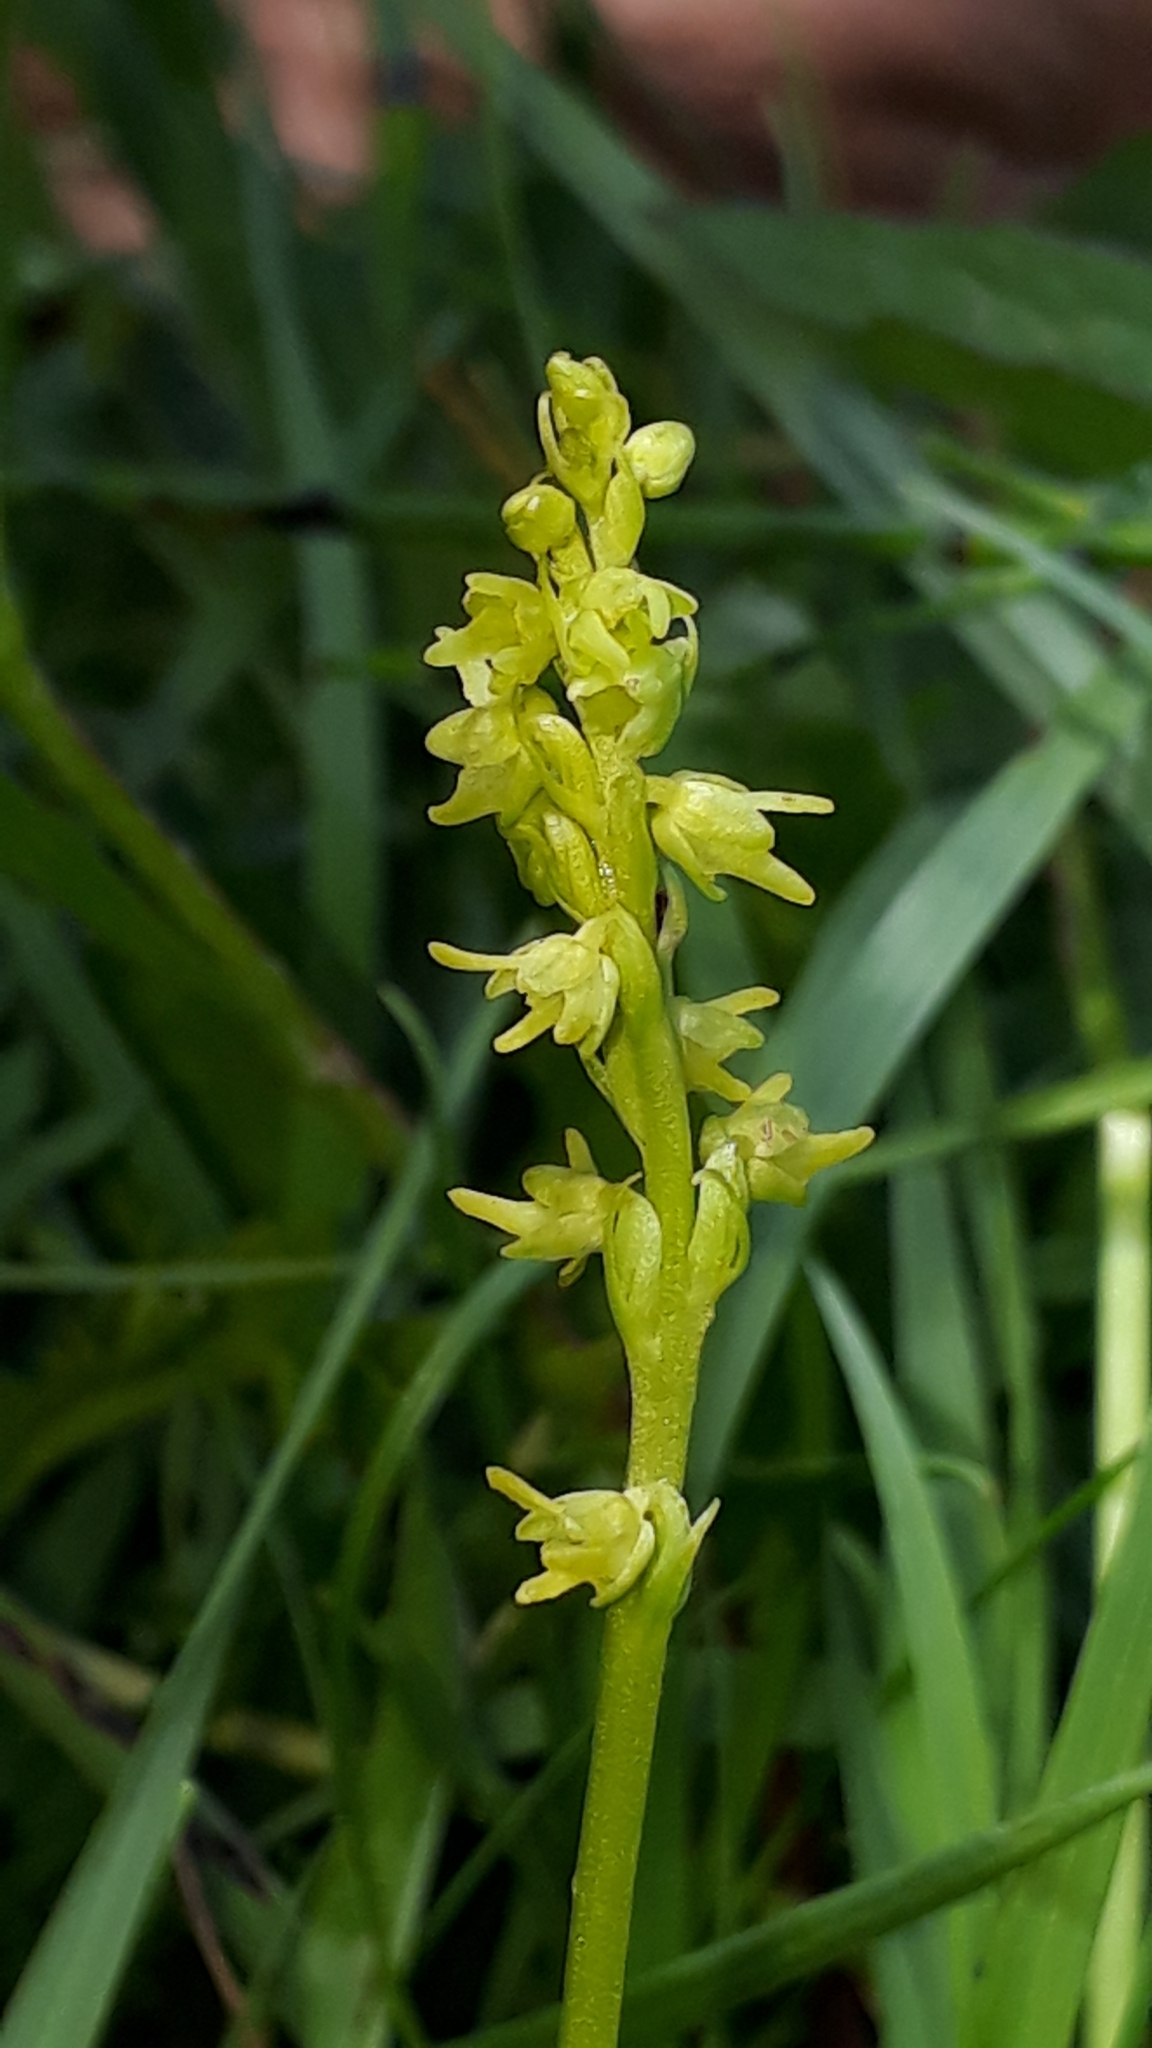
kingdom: Plantae
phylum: Tracheophyta
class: Liliopsida
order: Asparagales
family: Orchidaceae
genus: Herminium
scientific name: Herminium monorchis
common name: Musk orchid
